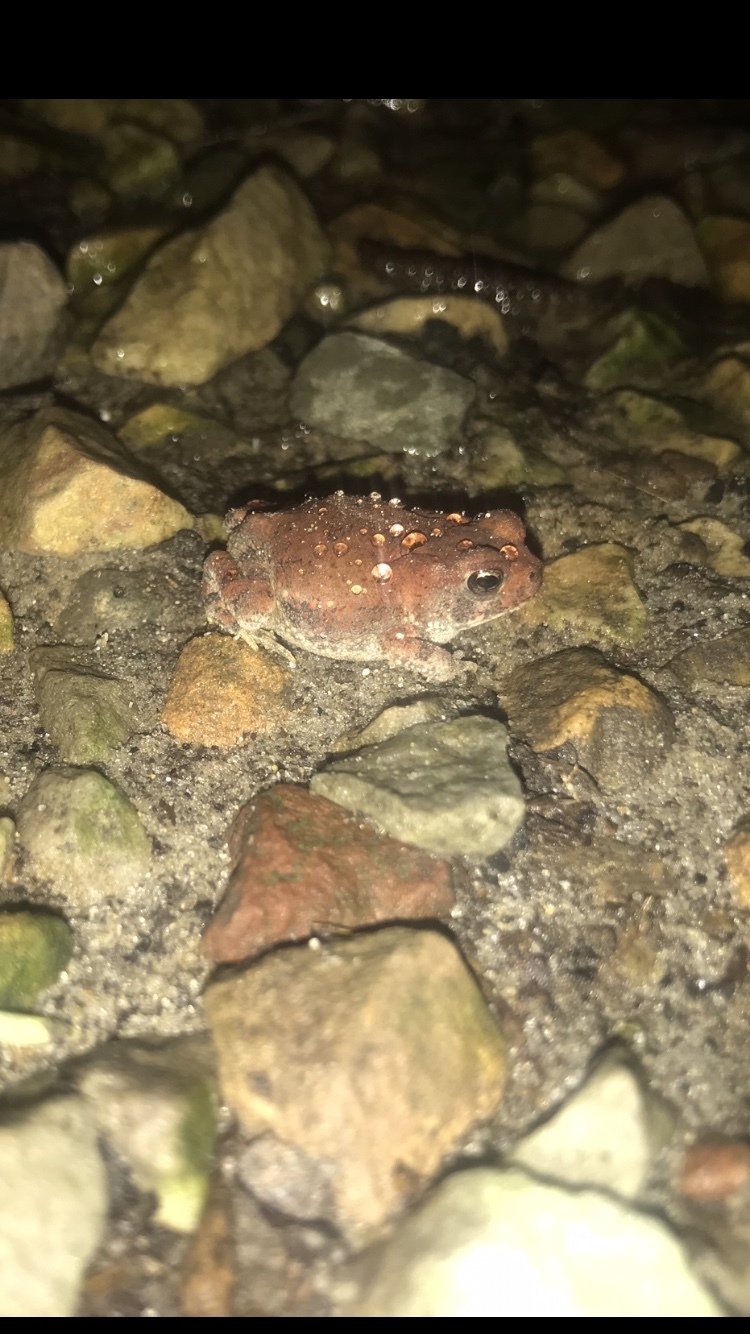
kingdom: Animalia
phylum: Chordata
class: Amphibia
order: Anura
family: Bufonidae
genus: Anaxyrus
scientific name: Anaxyrus americanus
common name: American toad
